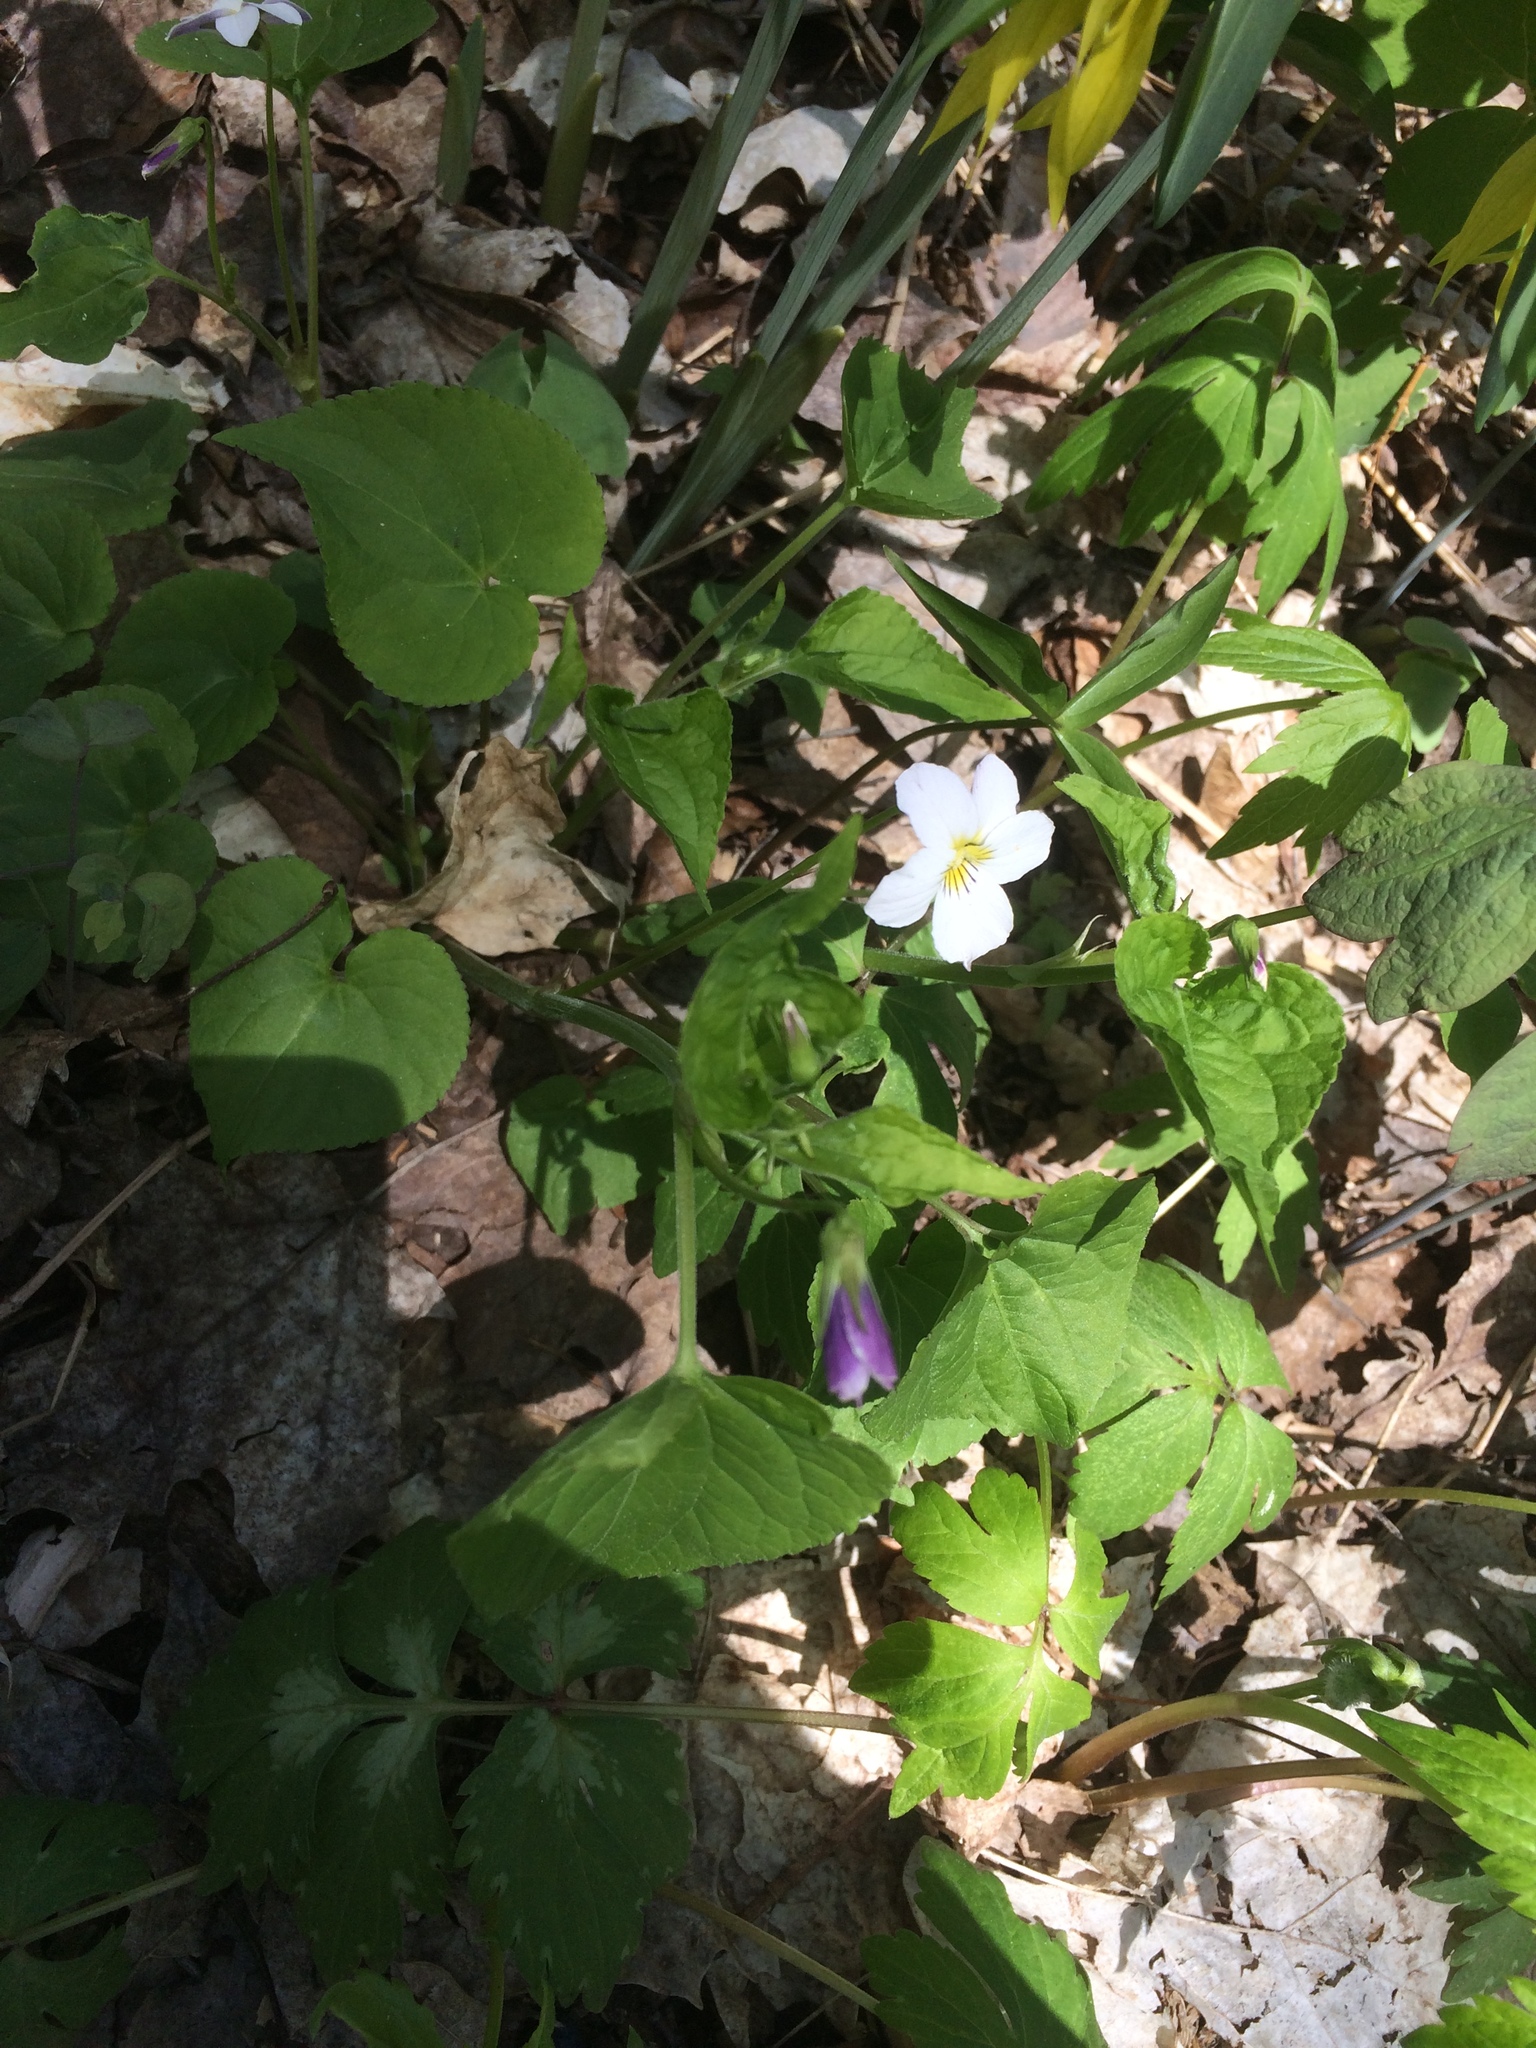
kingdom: Plantae
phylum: Tracheophyta
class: Magnoliopsida
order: Malpighiales
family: Violaceae
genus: Viola
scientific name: Viola canadensis
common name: Canada violet
